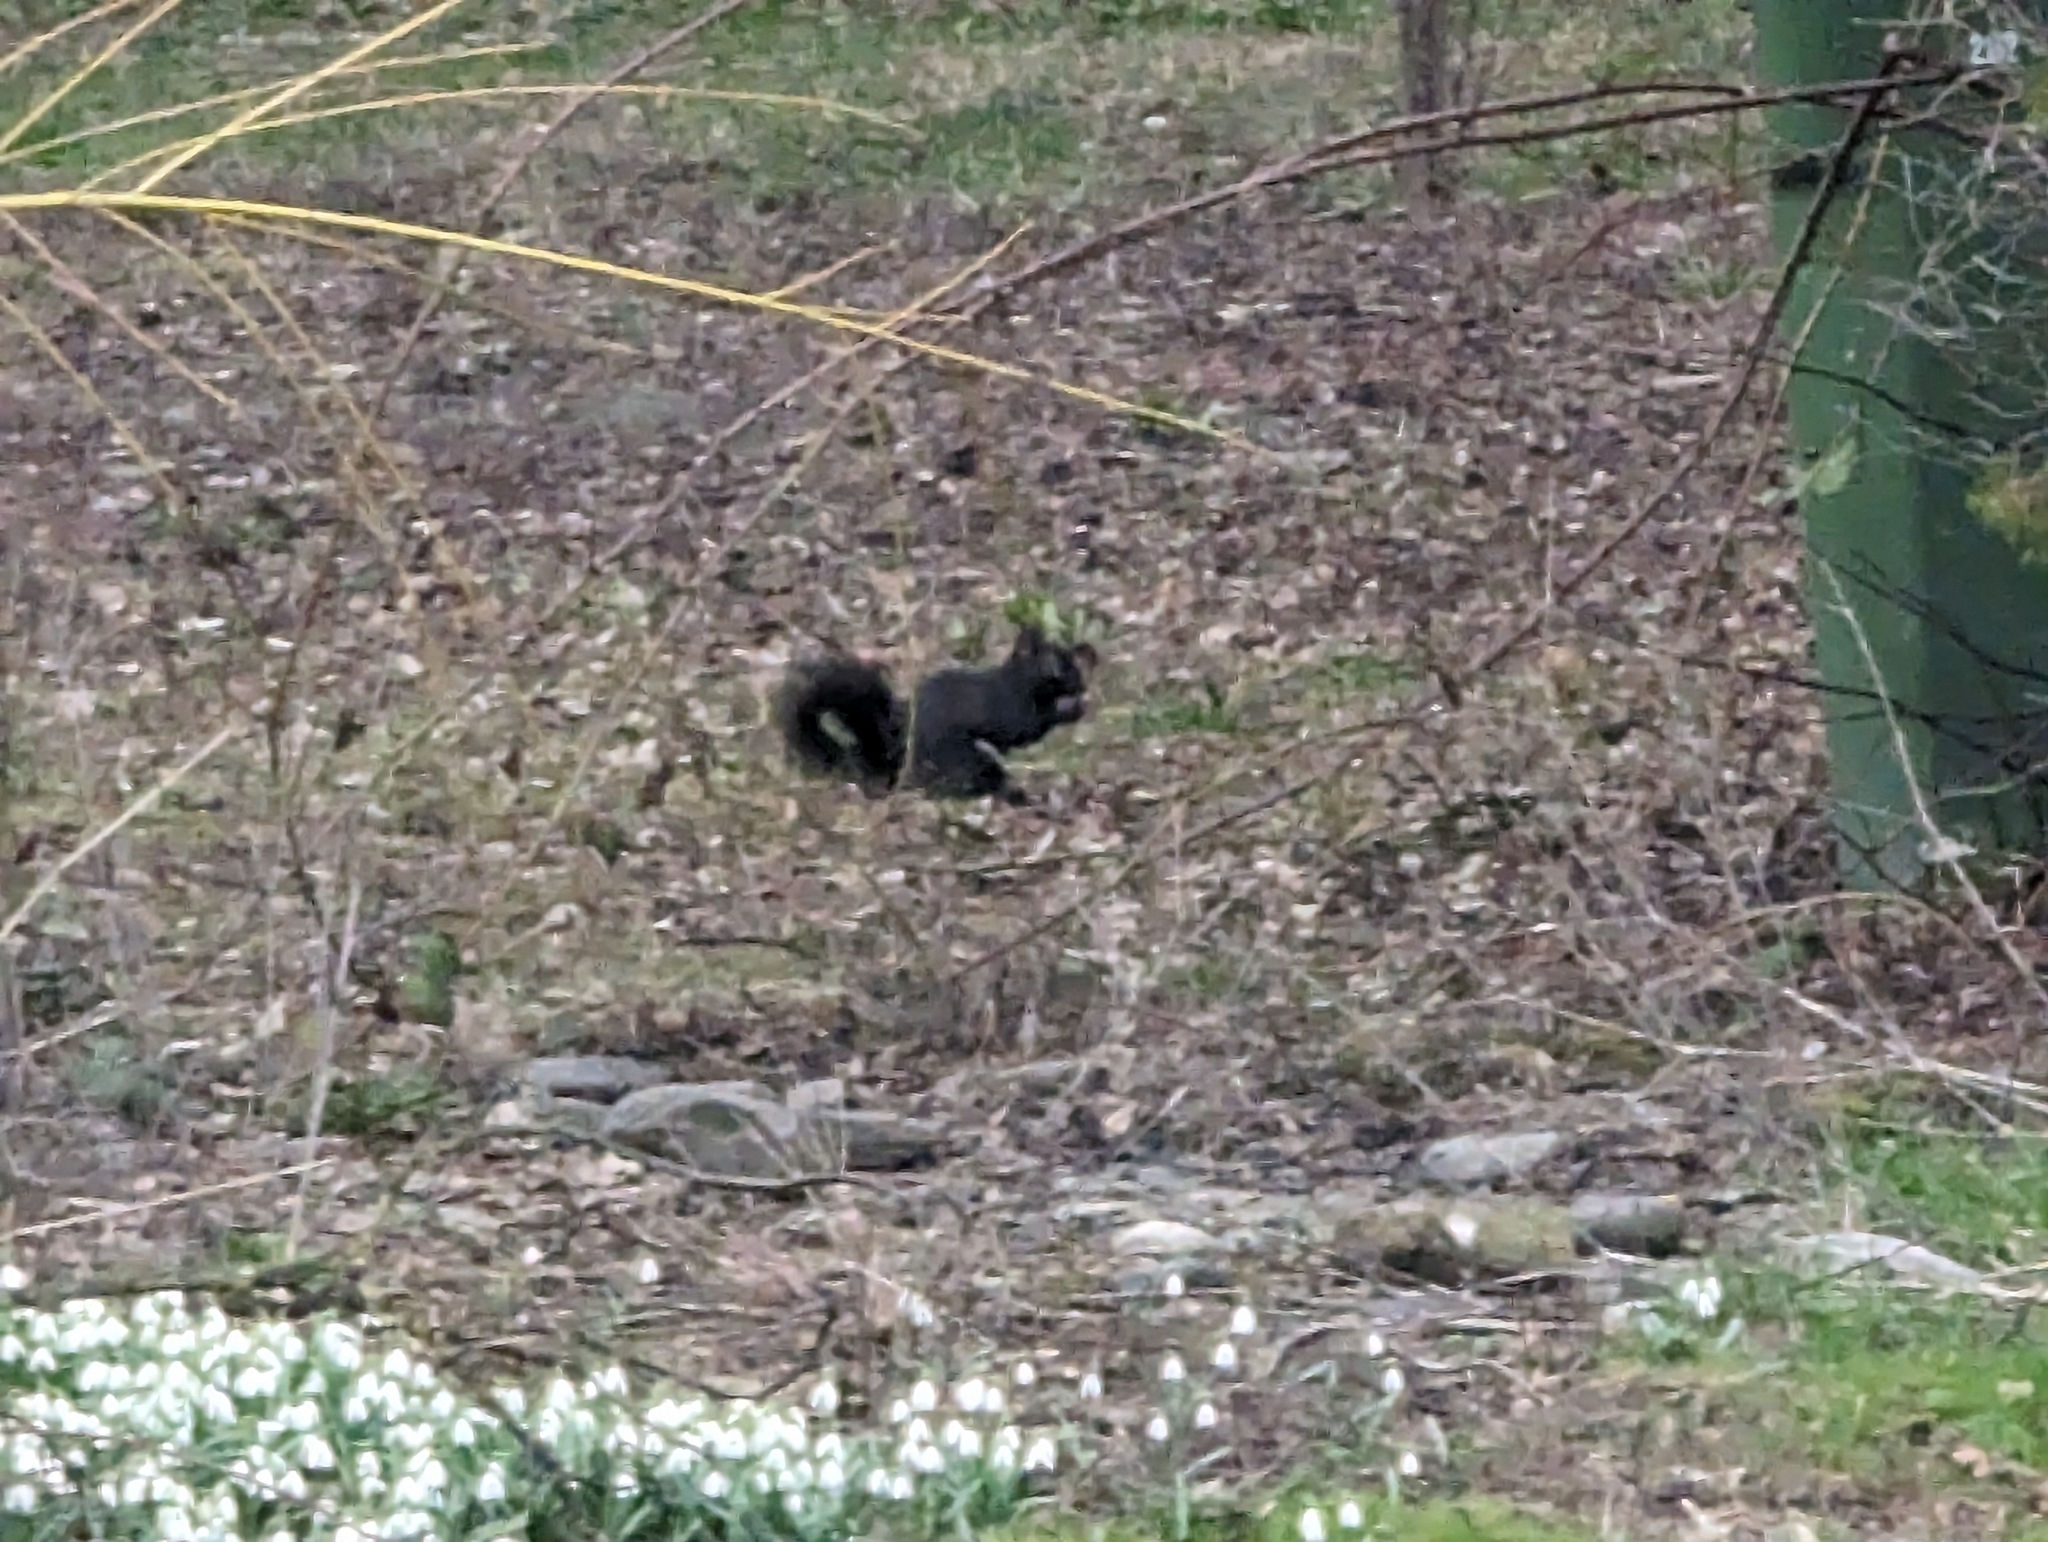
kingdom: Animalia
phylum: Chordata
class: Mammalia
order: Rodentia
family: Sciuridae
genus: Sciurus
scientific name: Sciurus carolinensis
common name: Eastern gray squirrel
